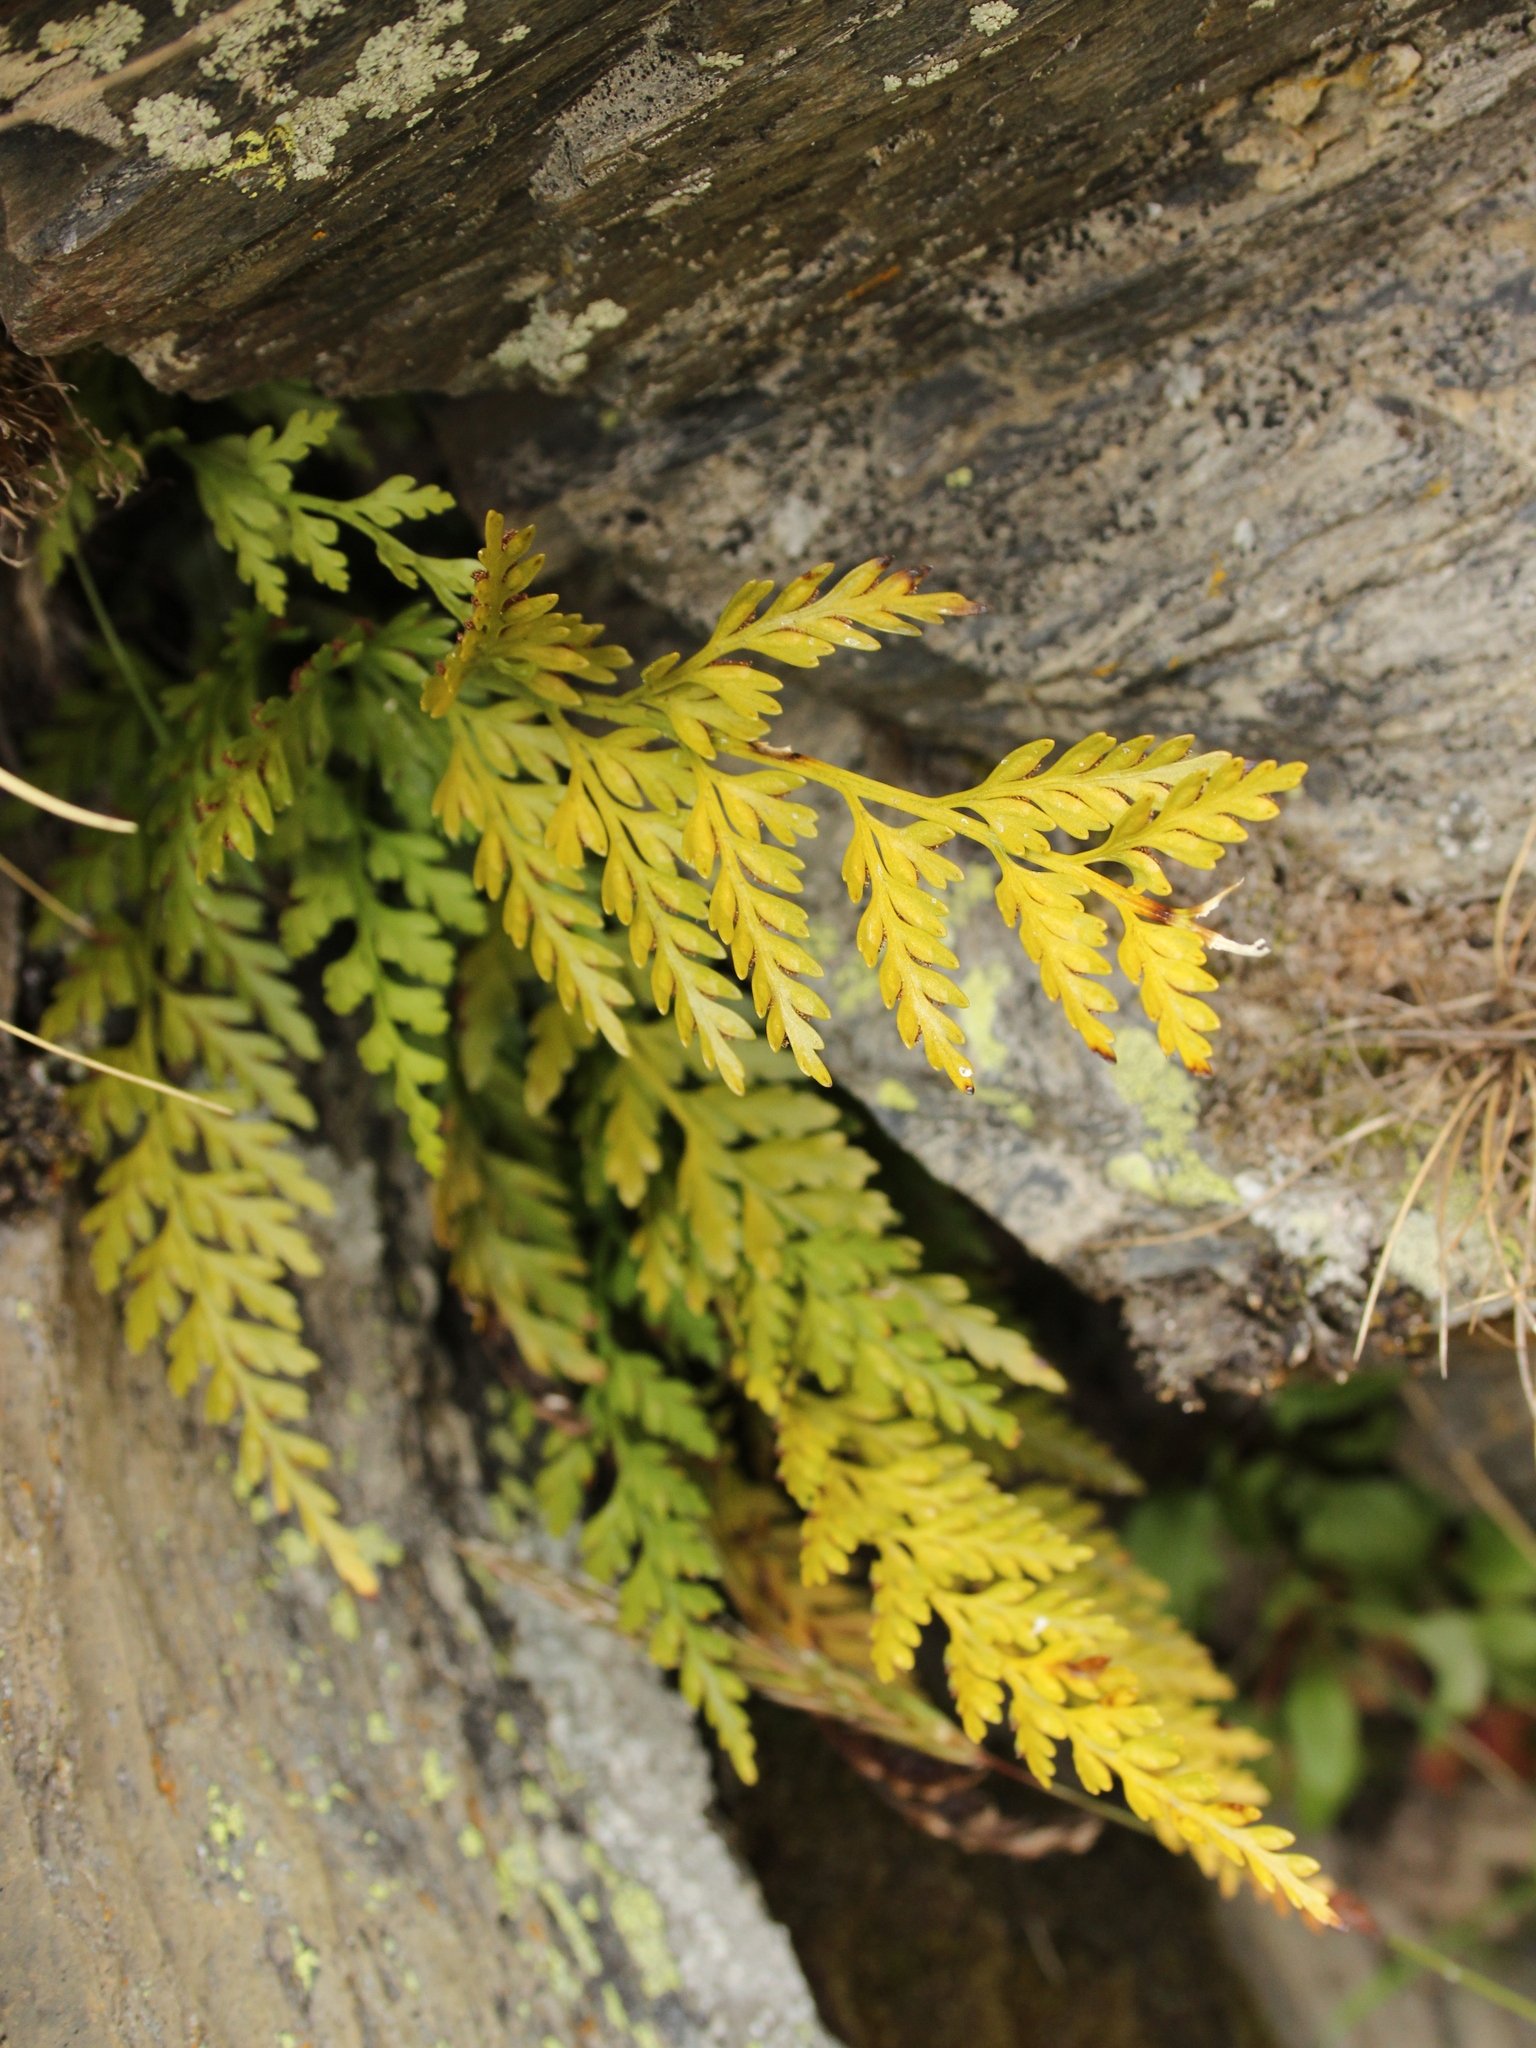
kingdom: Plantae
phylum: Tracheophyta
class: Polypodiopsida
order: Polypodiales
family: Aspleniaceae
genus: Asplenium
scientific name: Asplenium appendiculatum
